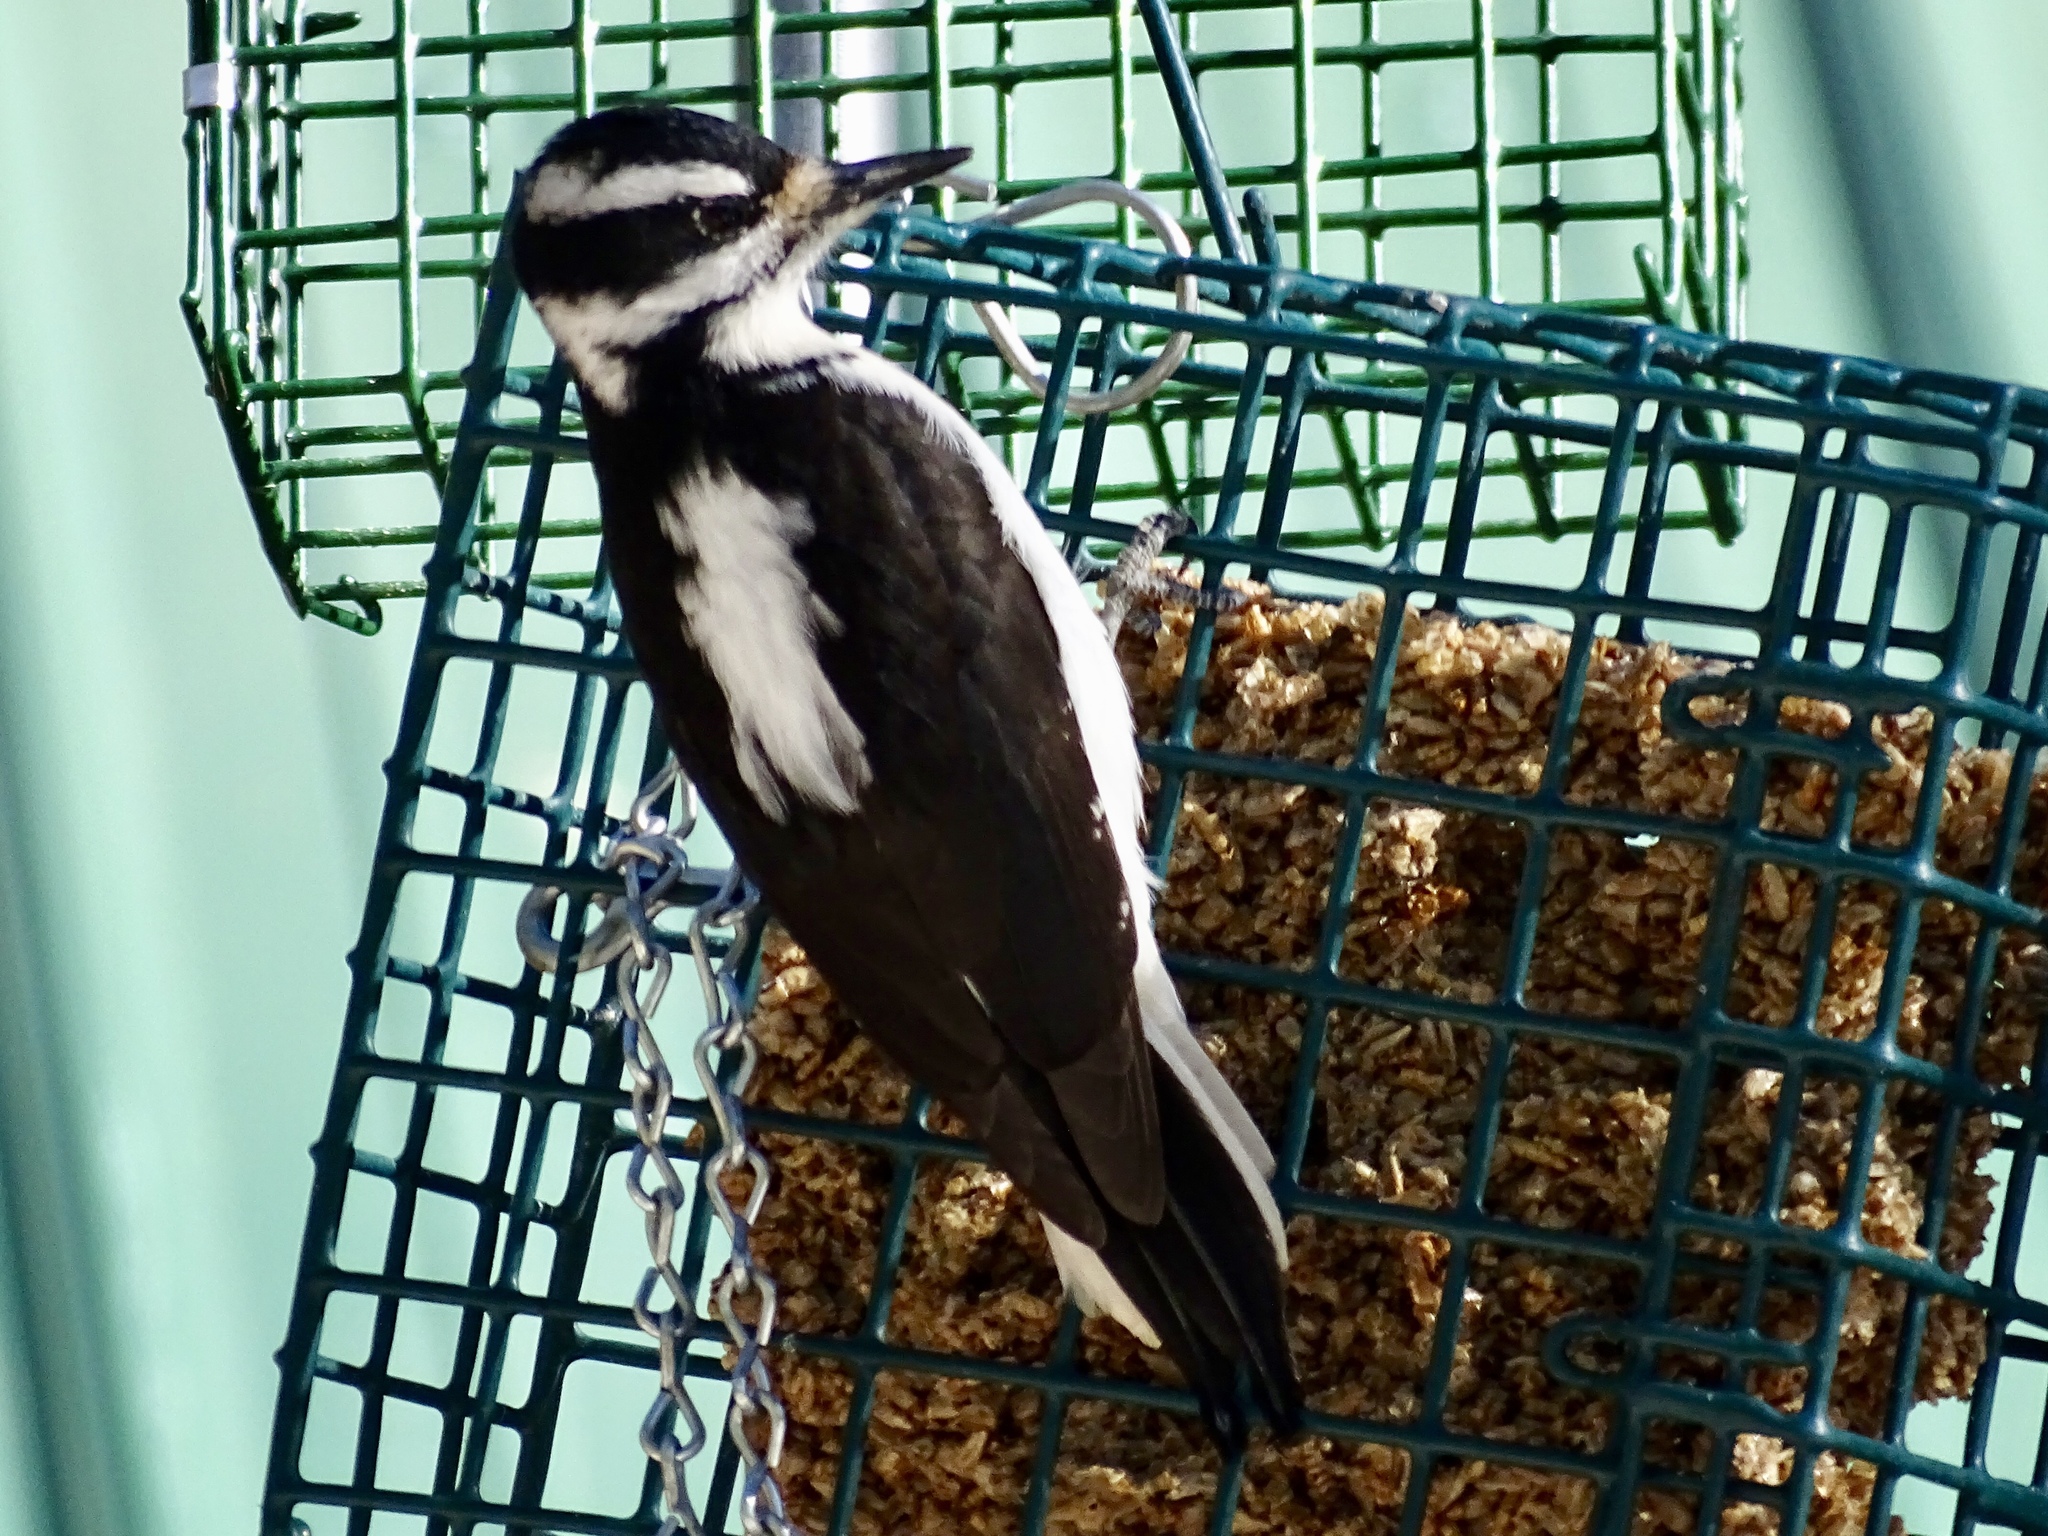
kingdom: Animalia
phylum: Chordata
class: Aves
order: Piciformes
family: Picidae
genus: Leuconotopicus
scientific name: Leuconotopicus villosus
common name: Hairy woodpecker
